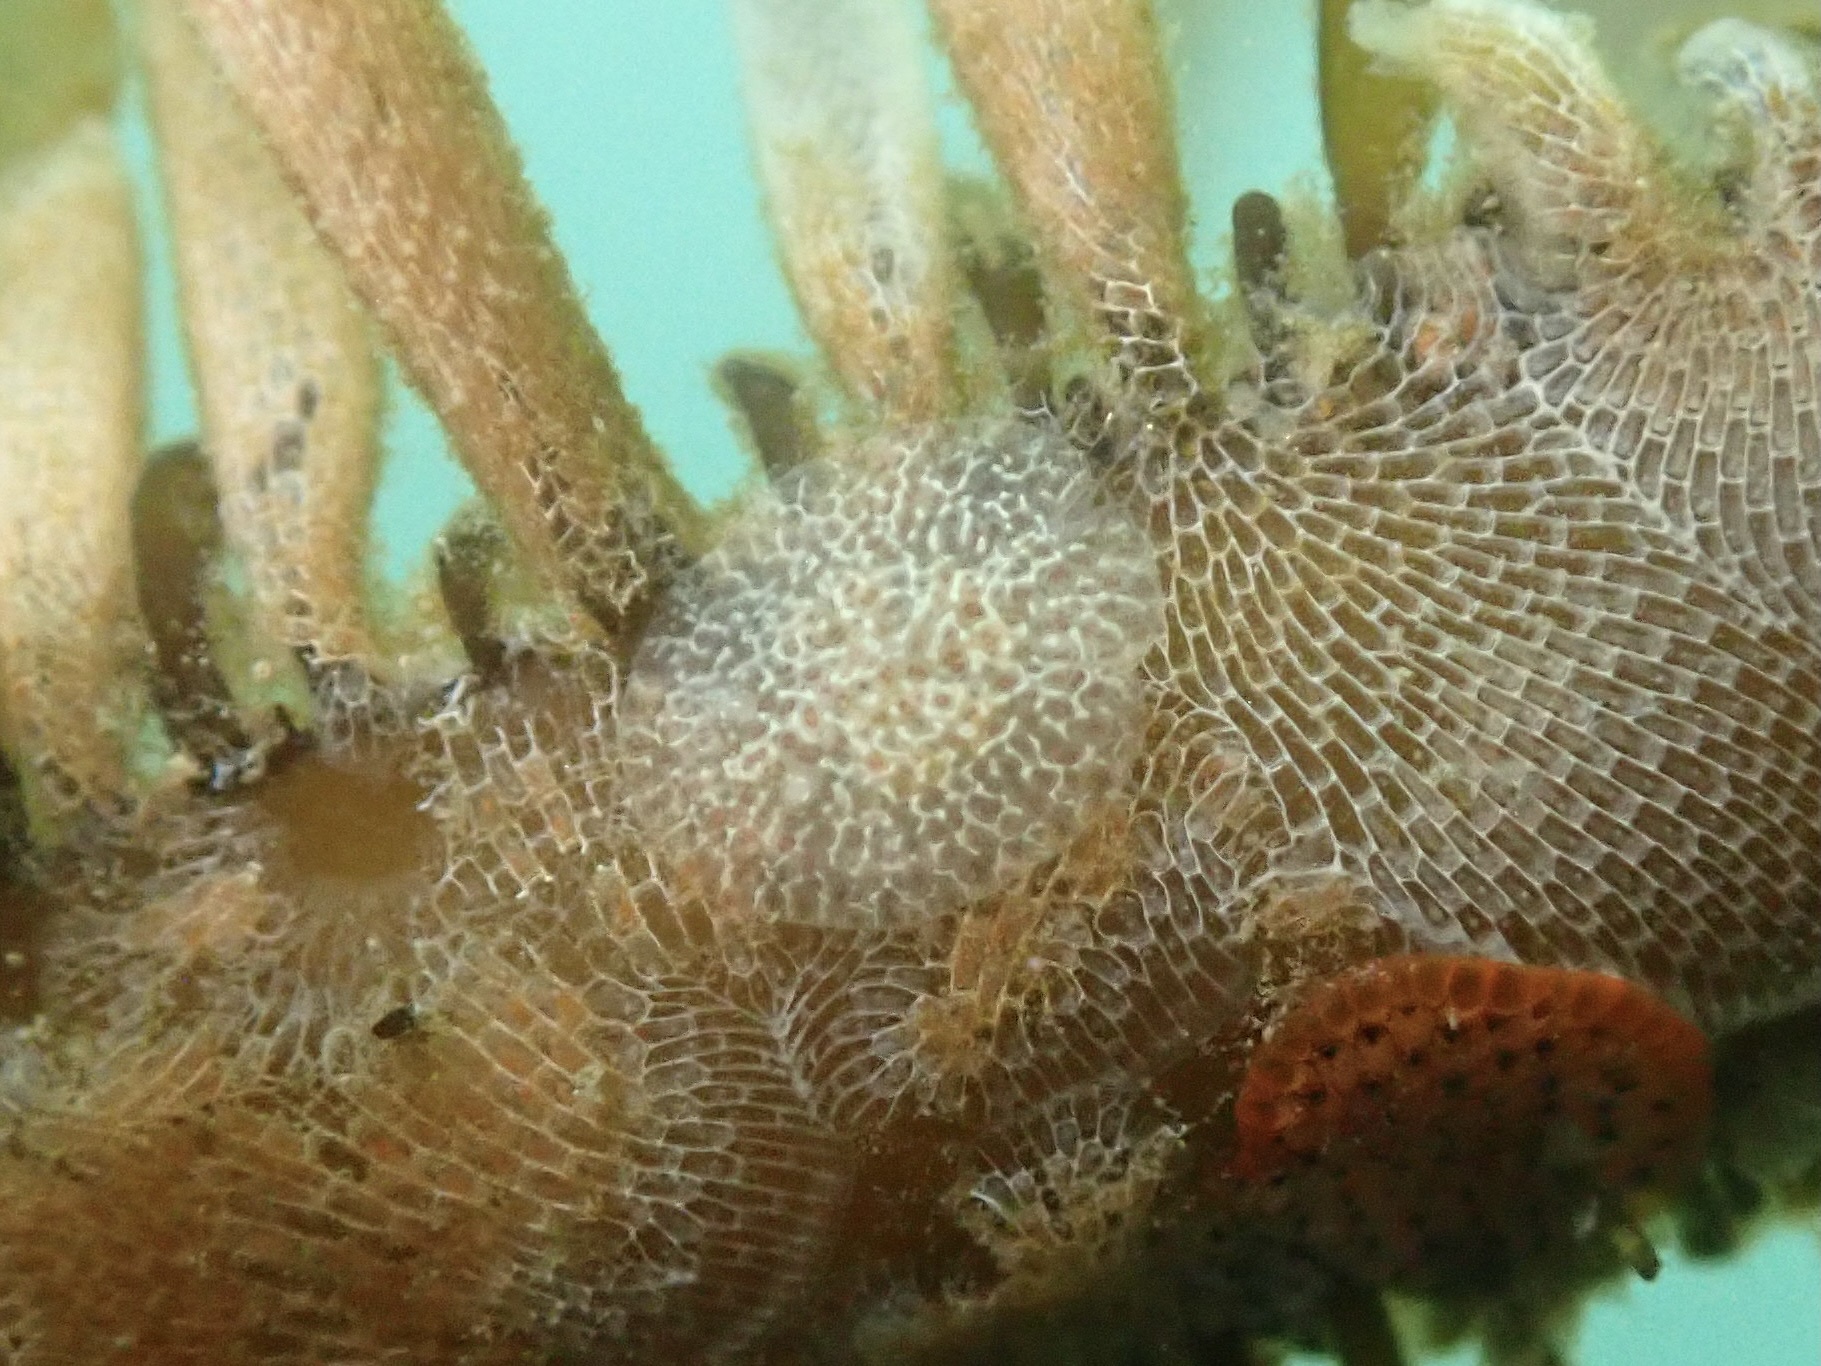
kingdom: Animalia
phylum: Mollusca
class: Gastropoda
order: Nudibranchia
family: Corambidae
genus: Corambe
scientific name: Corambe pacifica
